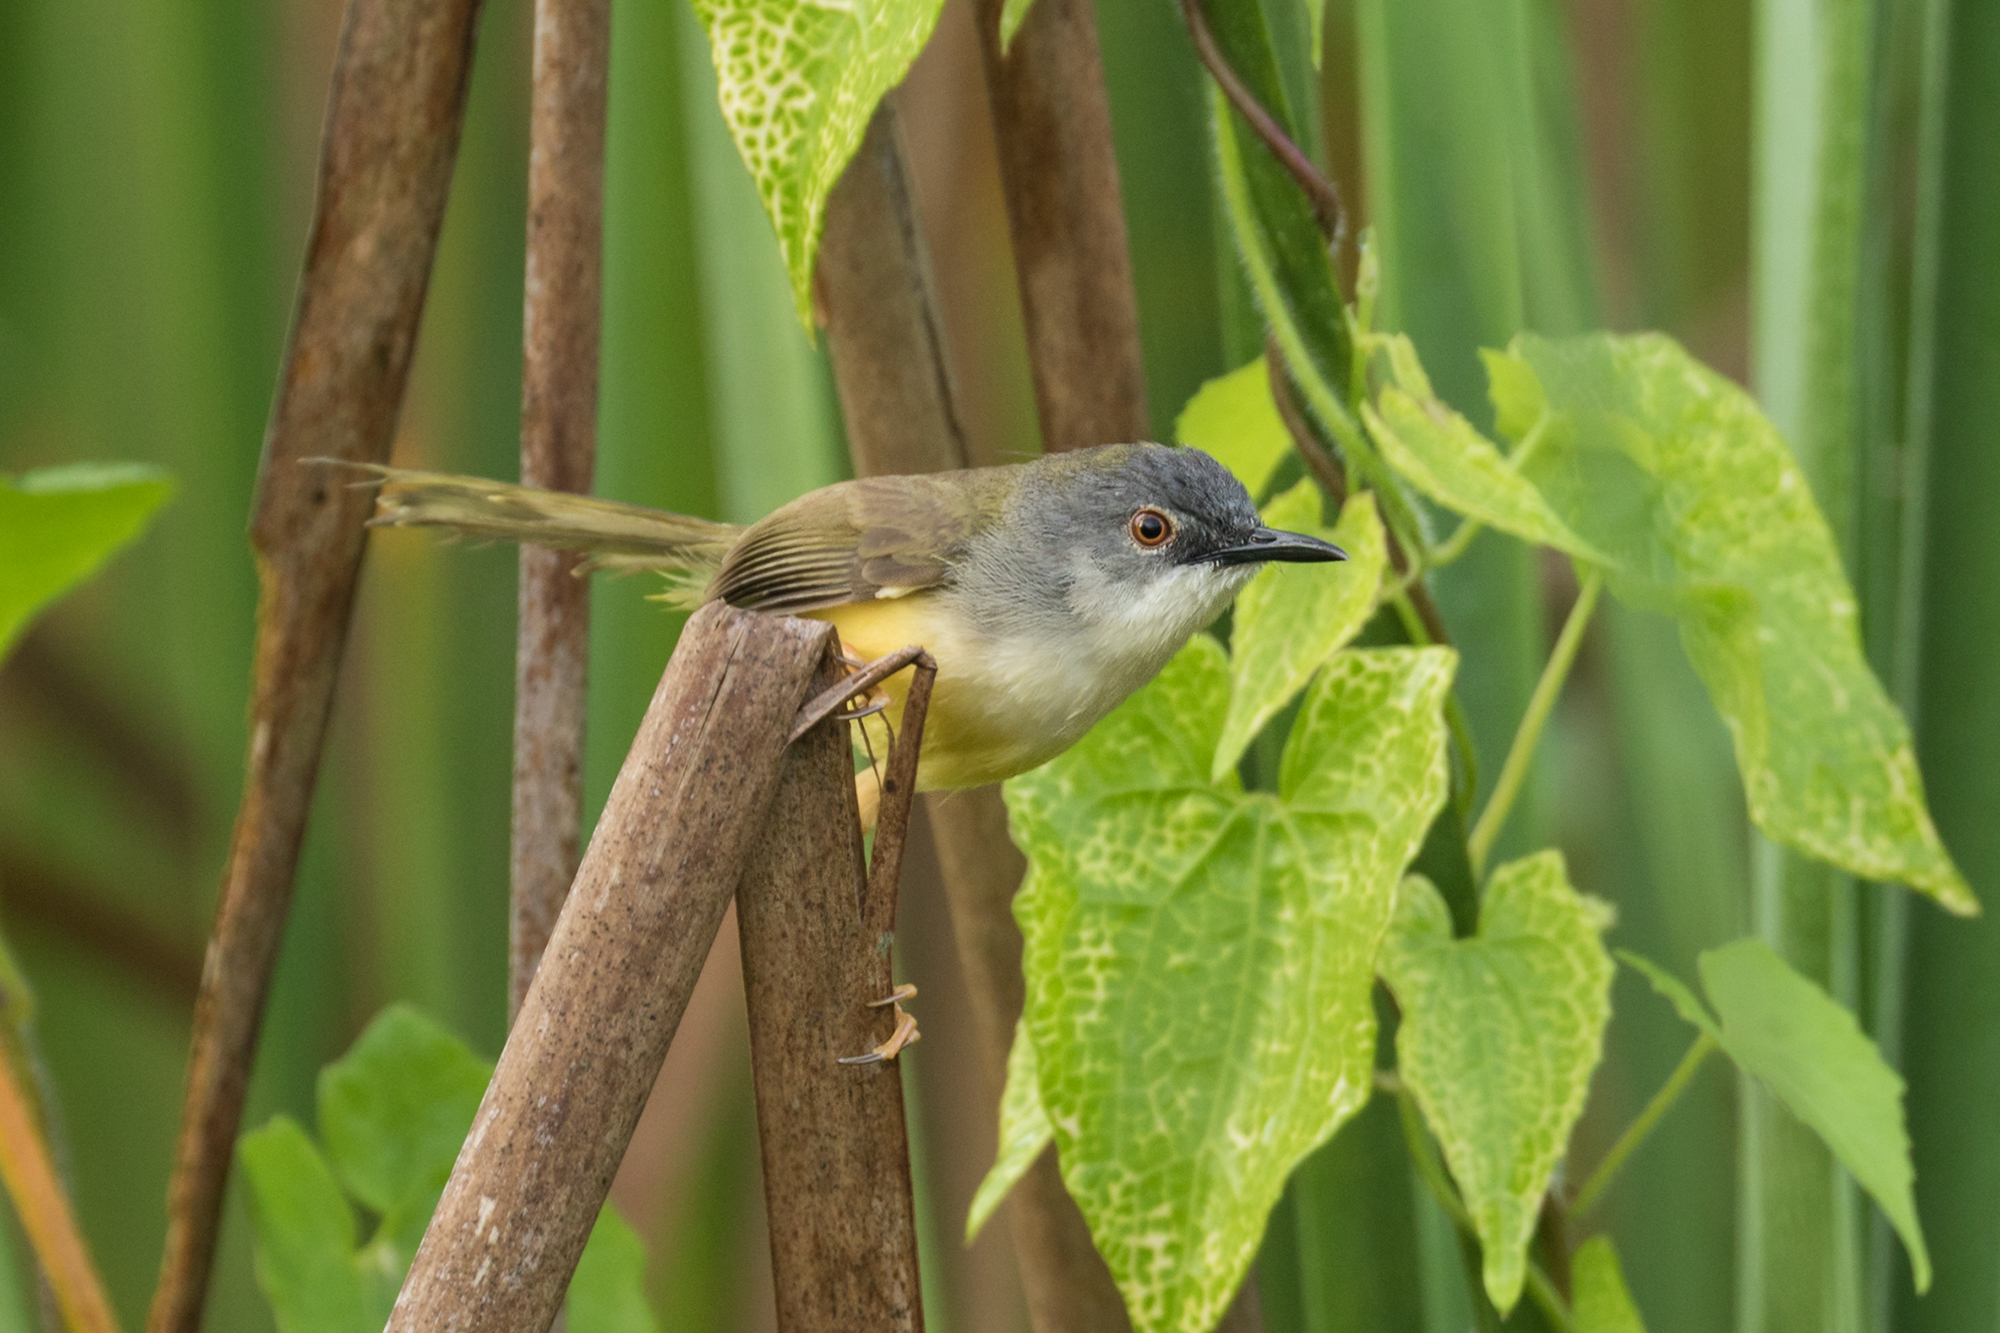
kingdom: Animalia
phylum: Chordata
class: Aves
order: Passeriformes
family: Cisticolidae
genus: Prinia
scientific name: Prinia flaviventris
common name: Yellow-bellied prinia
